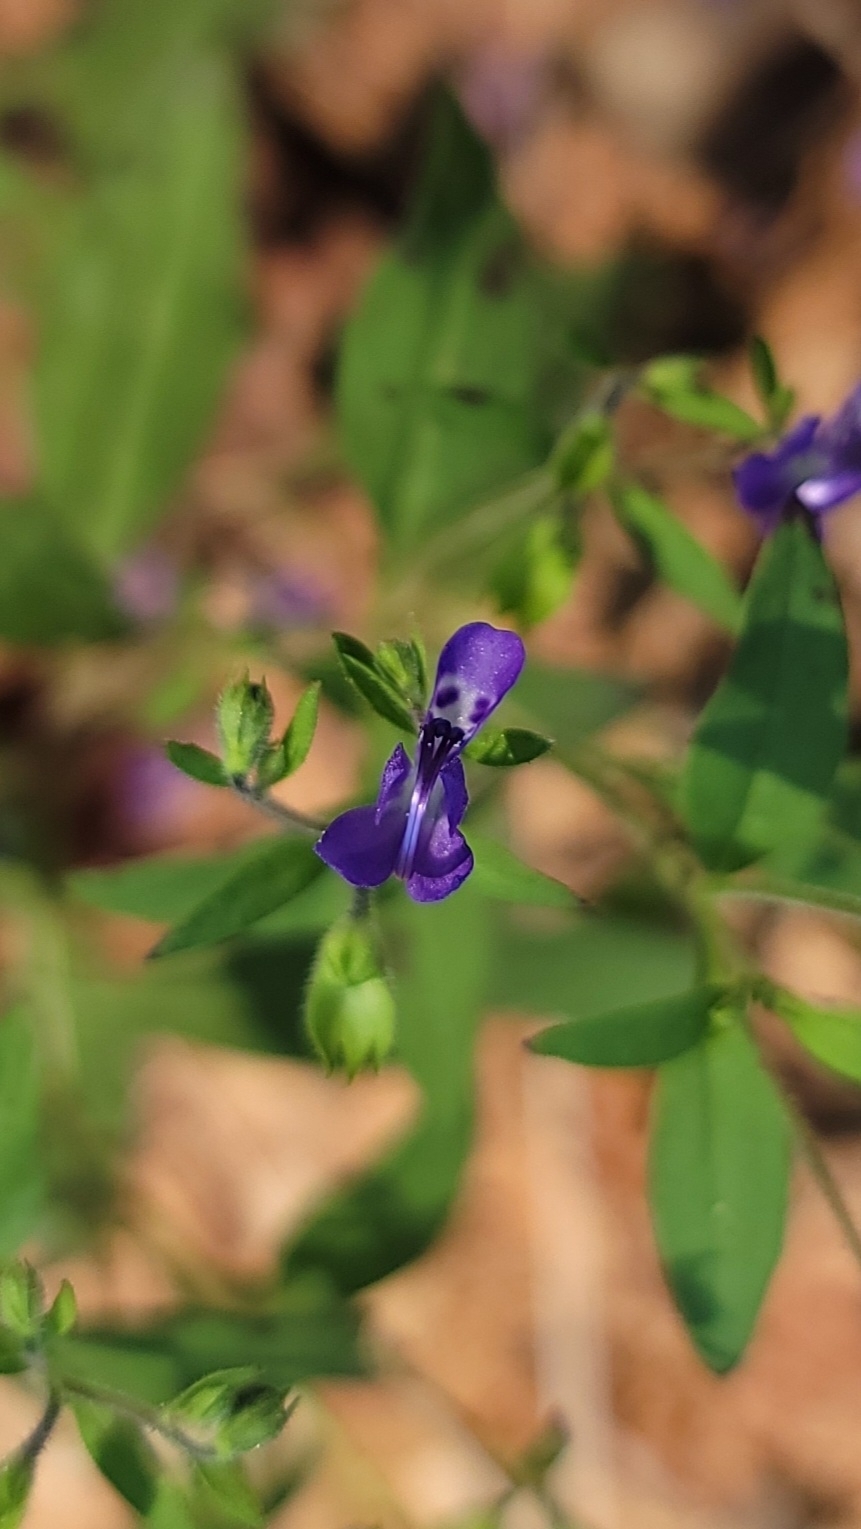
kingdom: Plantae
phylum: Tracheophyta
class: Magnoliopsida
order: Lamiales
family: Lamiaceae
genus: Trichostema
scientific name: Trichostema dichotomum
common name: Bastard pennyroyal
